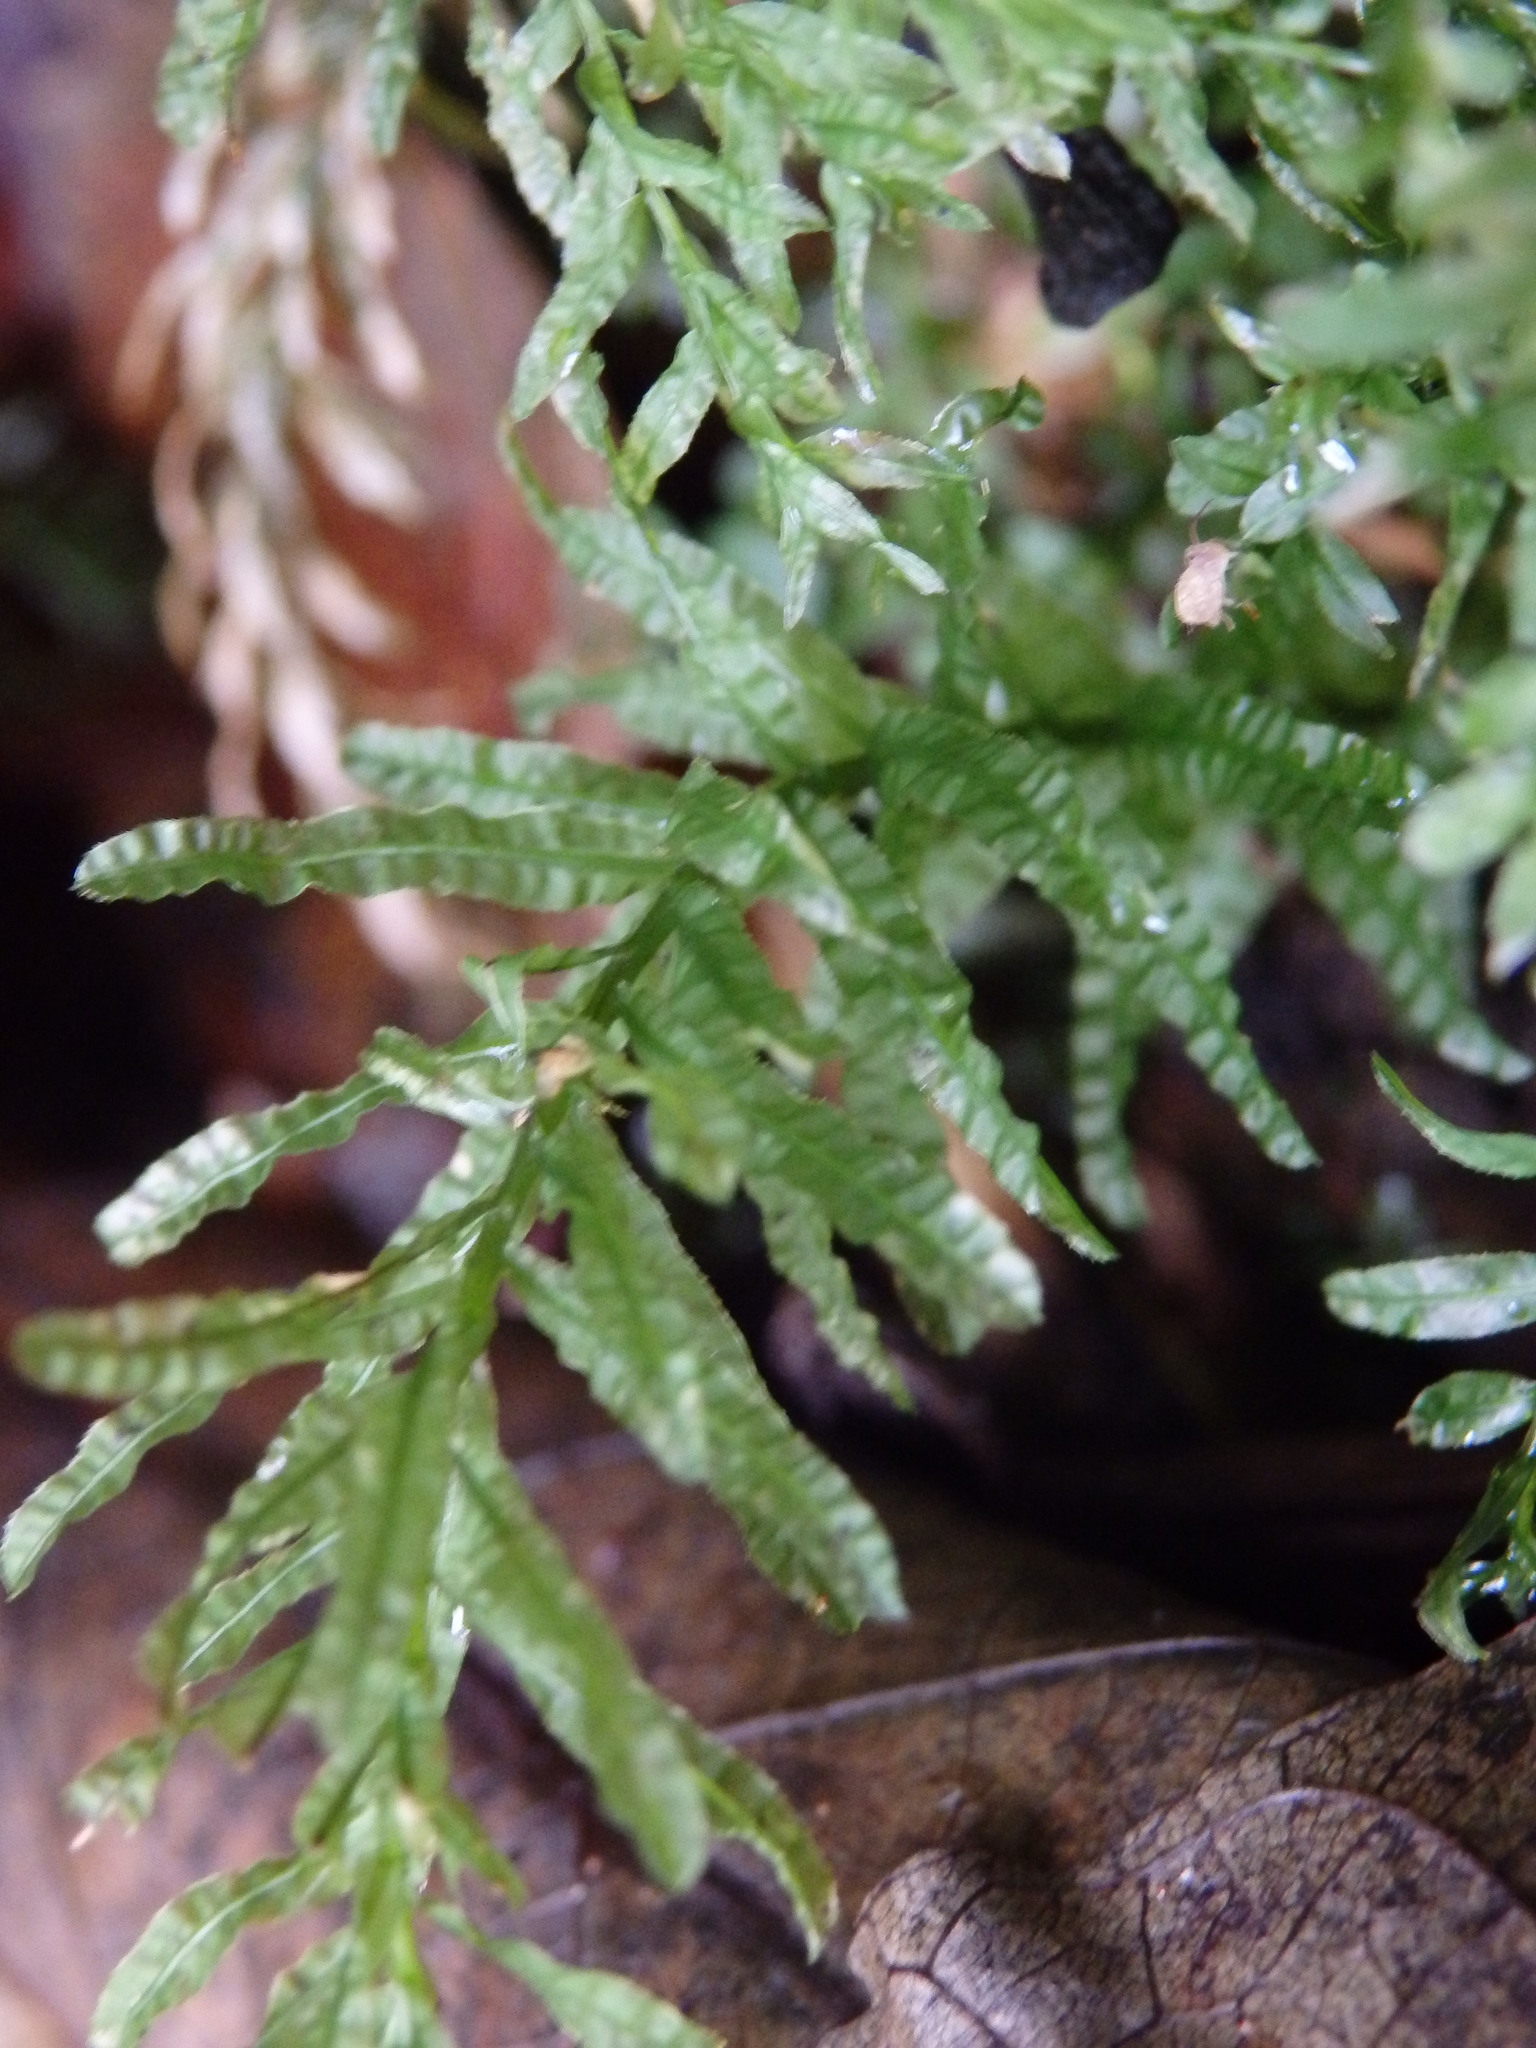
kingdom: Plantae
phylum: Bryophyta
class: Bryopsida
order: Bryales
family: Mniaceae
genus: Plagiomnium
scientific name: Plagiomnium undulatum
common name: Hart's-tongue thyme-moss
